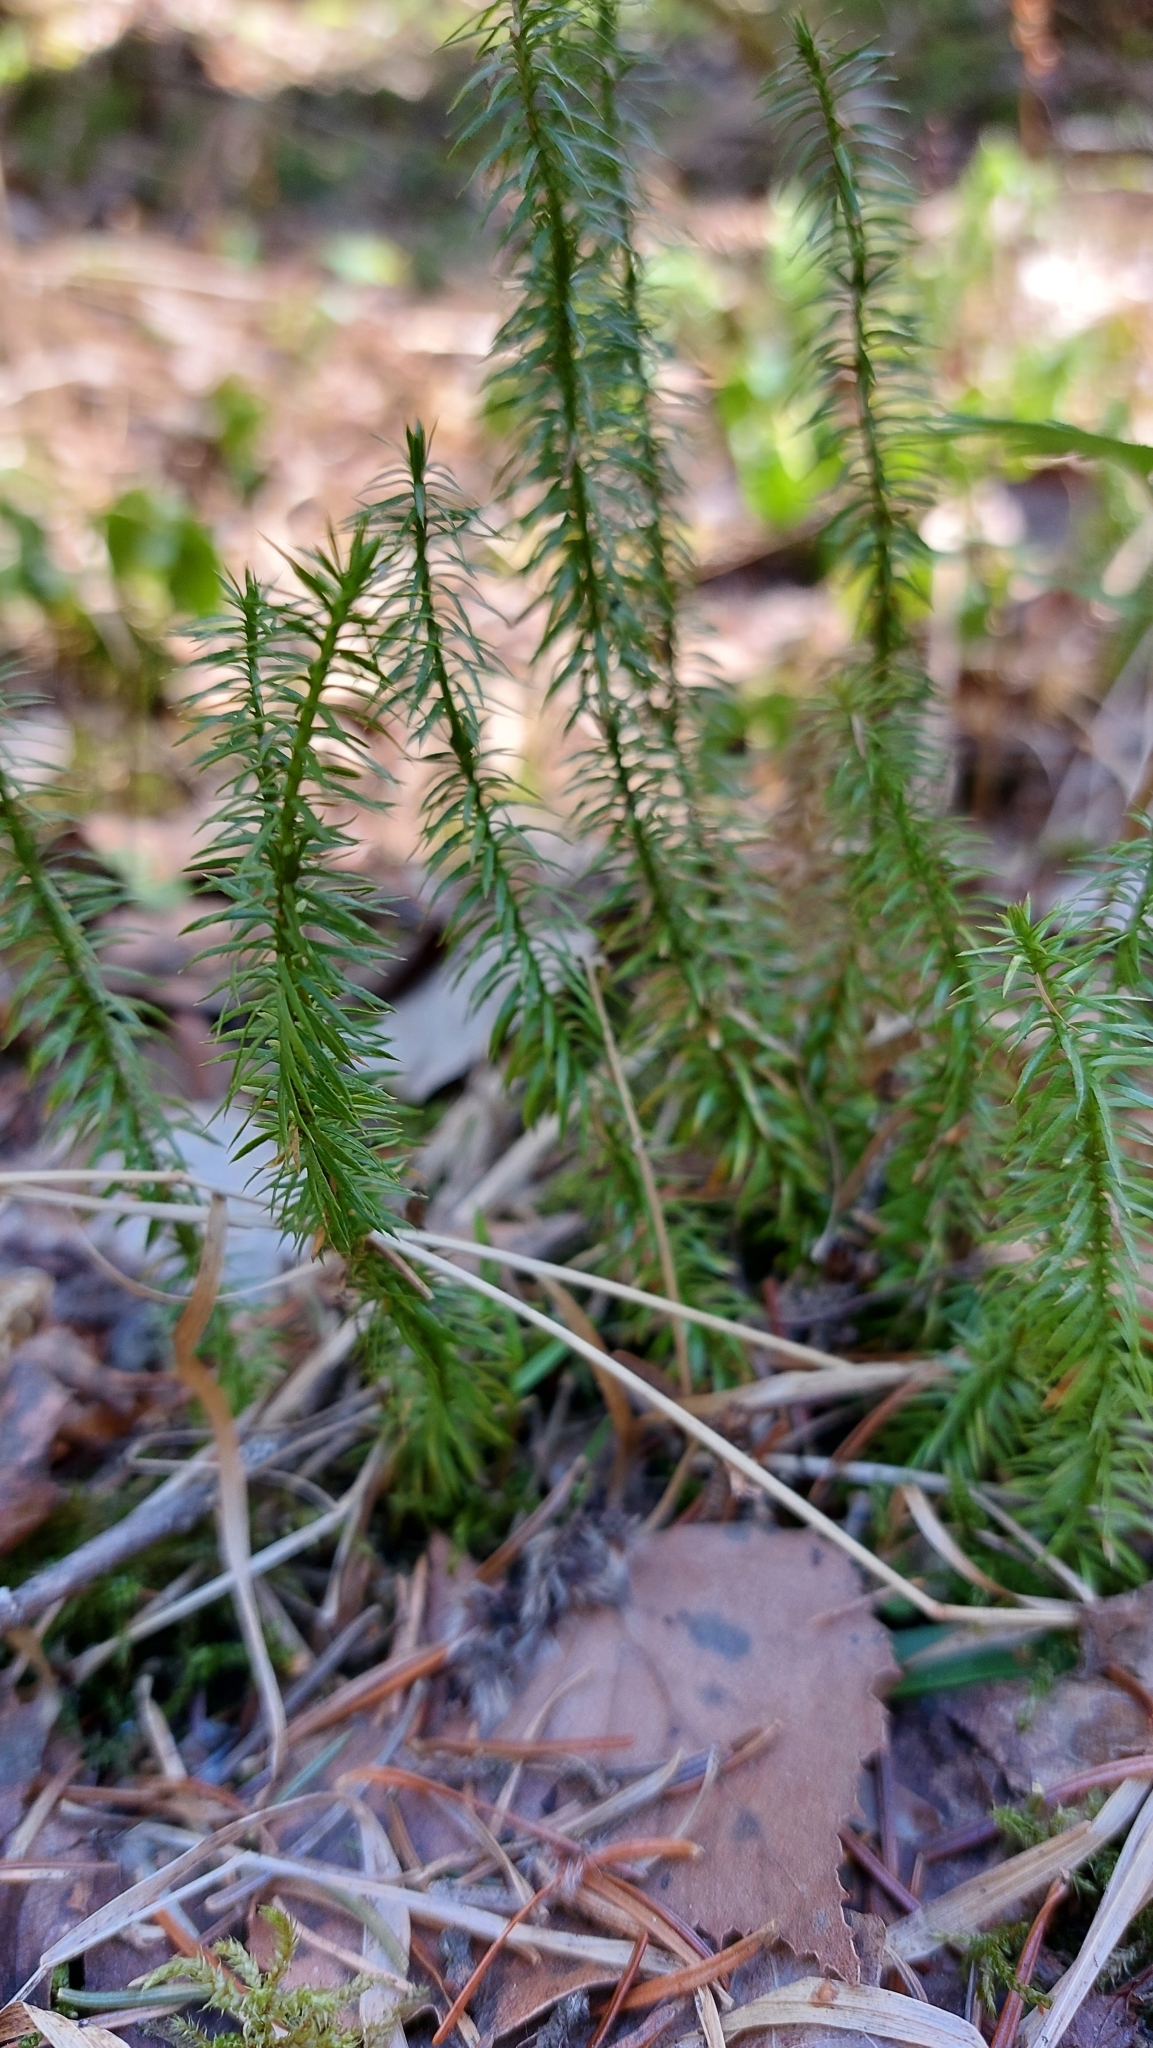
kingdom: Plantae
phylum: Tracheophyta
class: Lycopodiopsida
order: Lycopodiales
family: Lycopodiaceae
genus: Spinulum
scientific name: Spinulum annotinum
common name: Interrupted club-moss
